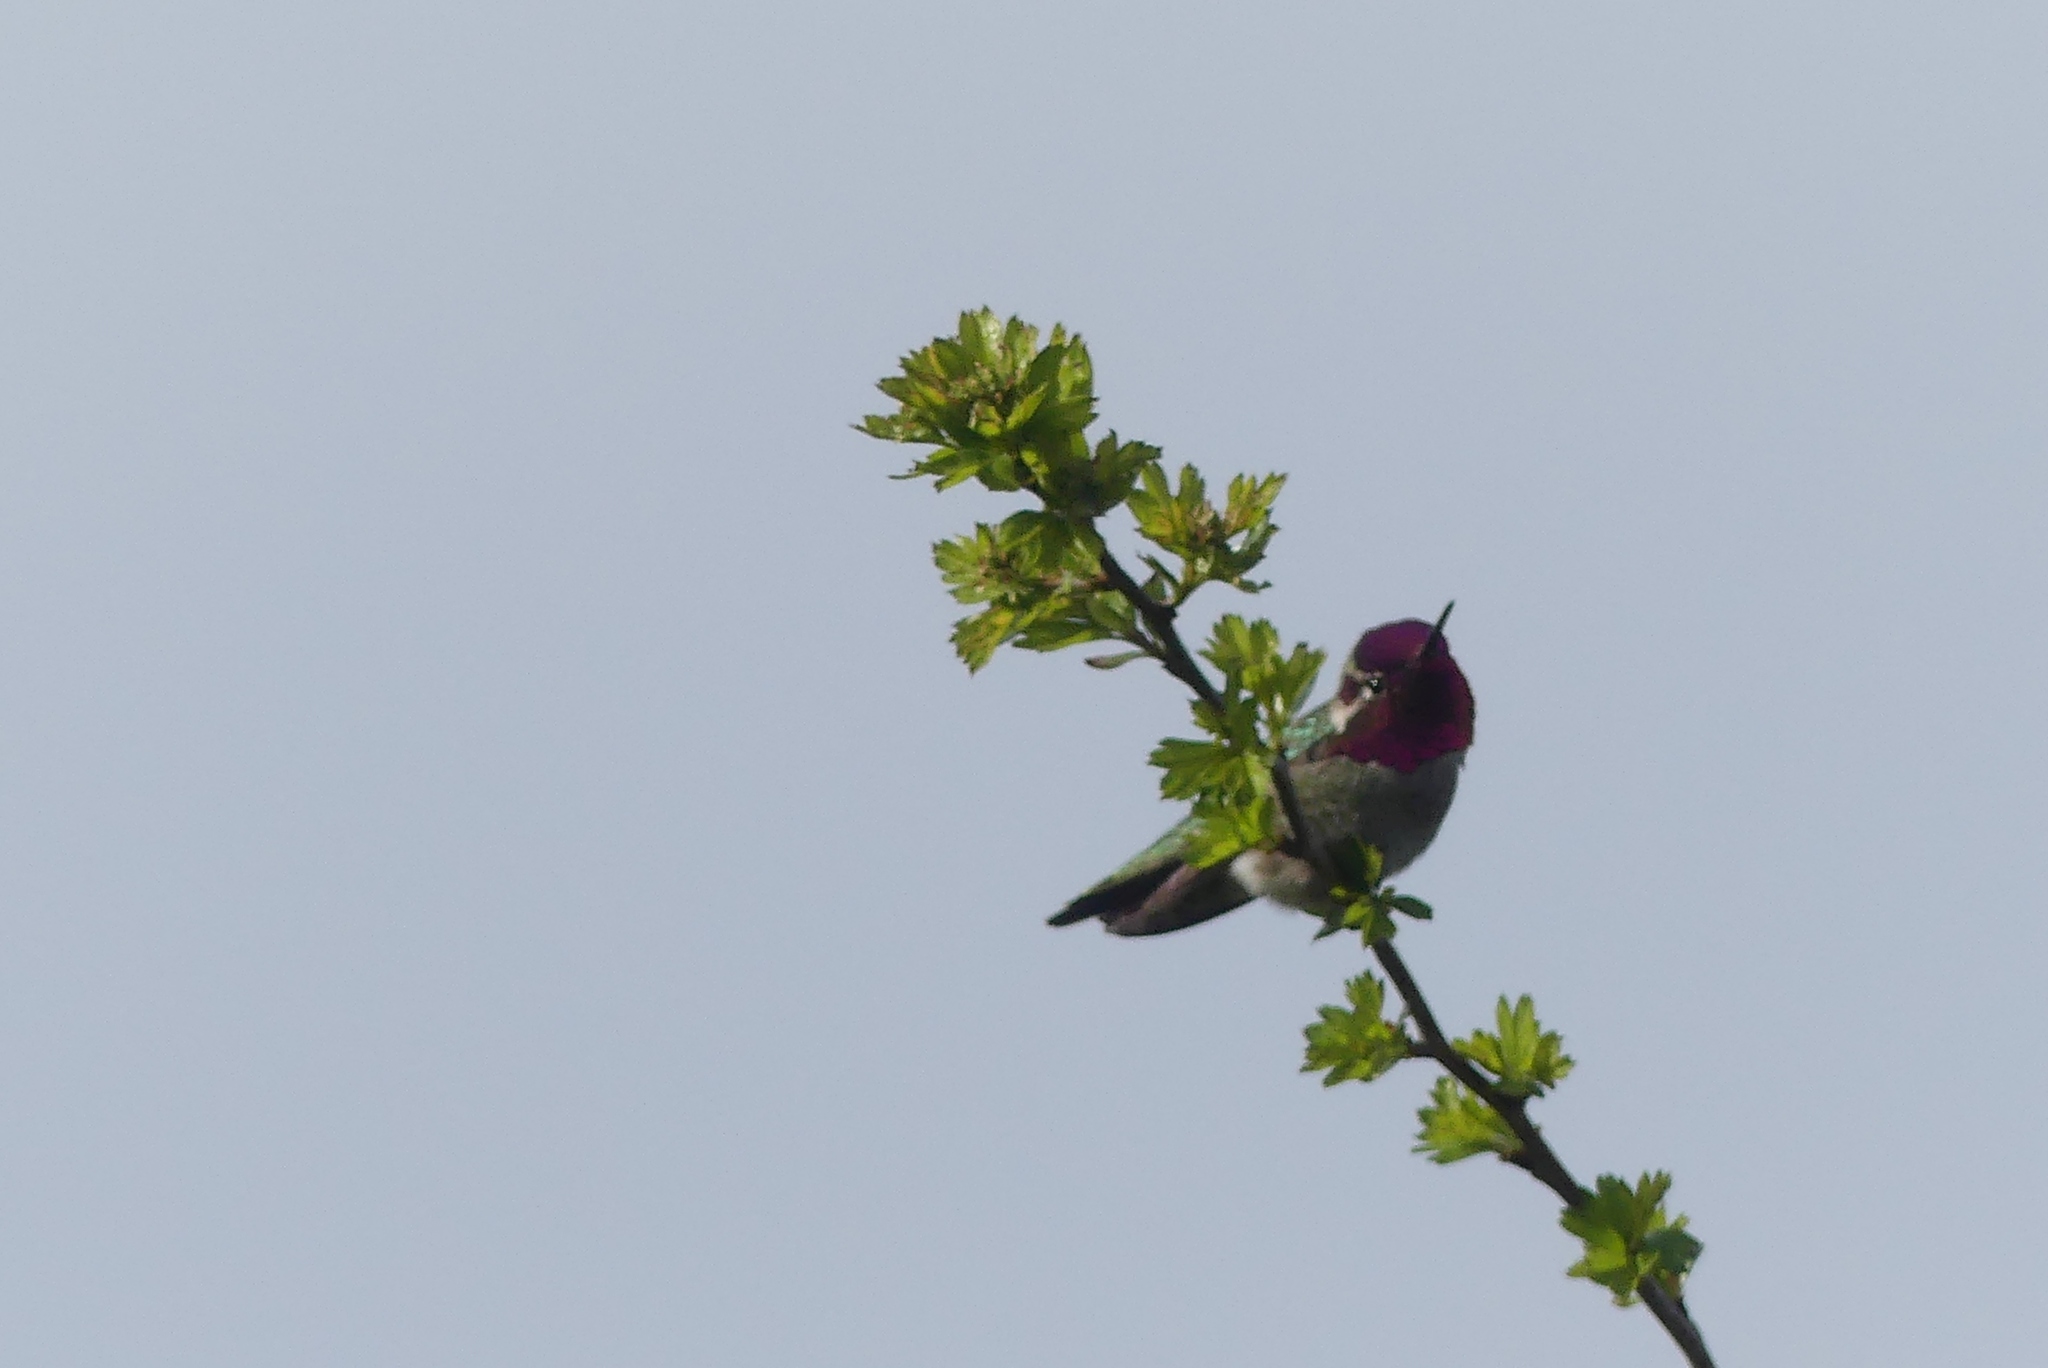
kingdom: Animalia
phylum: Chordata
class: Aves
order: Apodiformes
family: Trochilidae
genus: Calypte
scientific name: Calypte anna
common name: Anna's hummingbird
